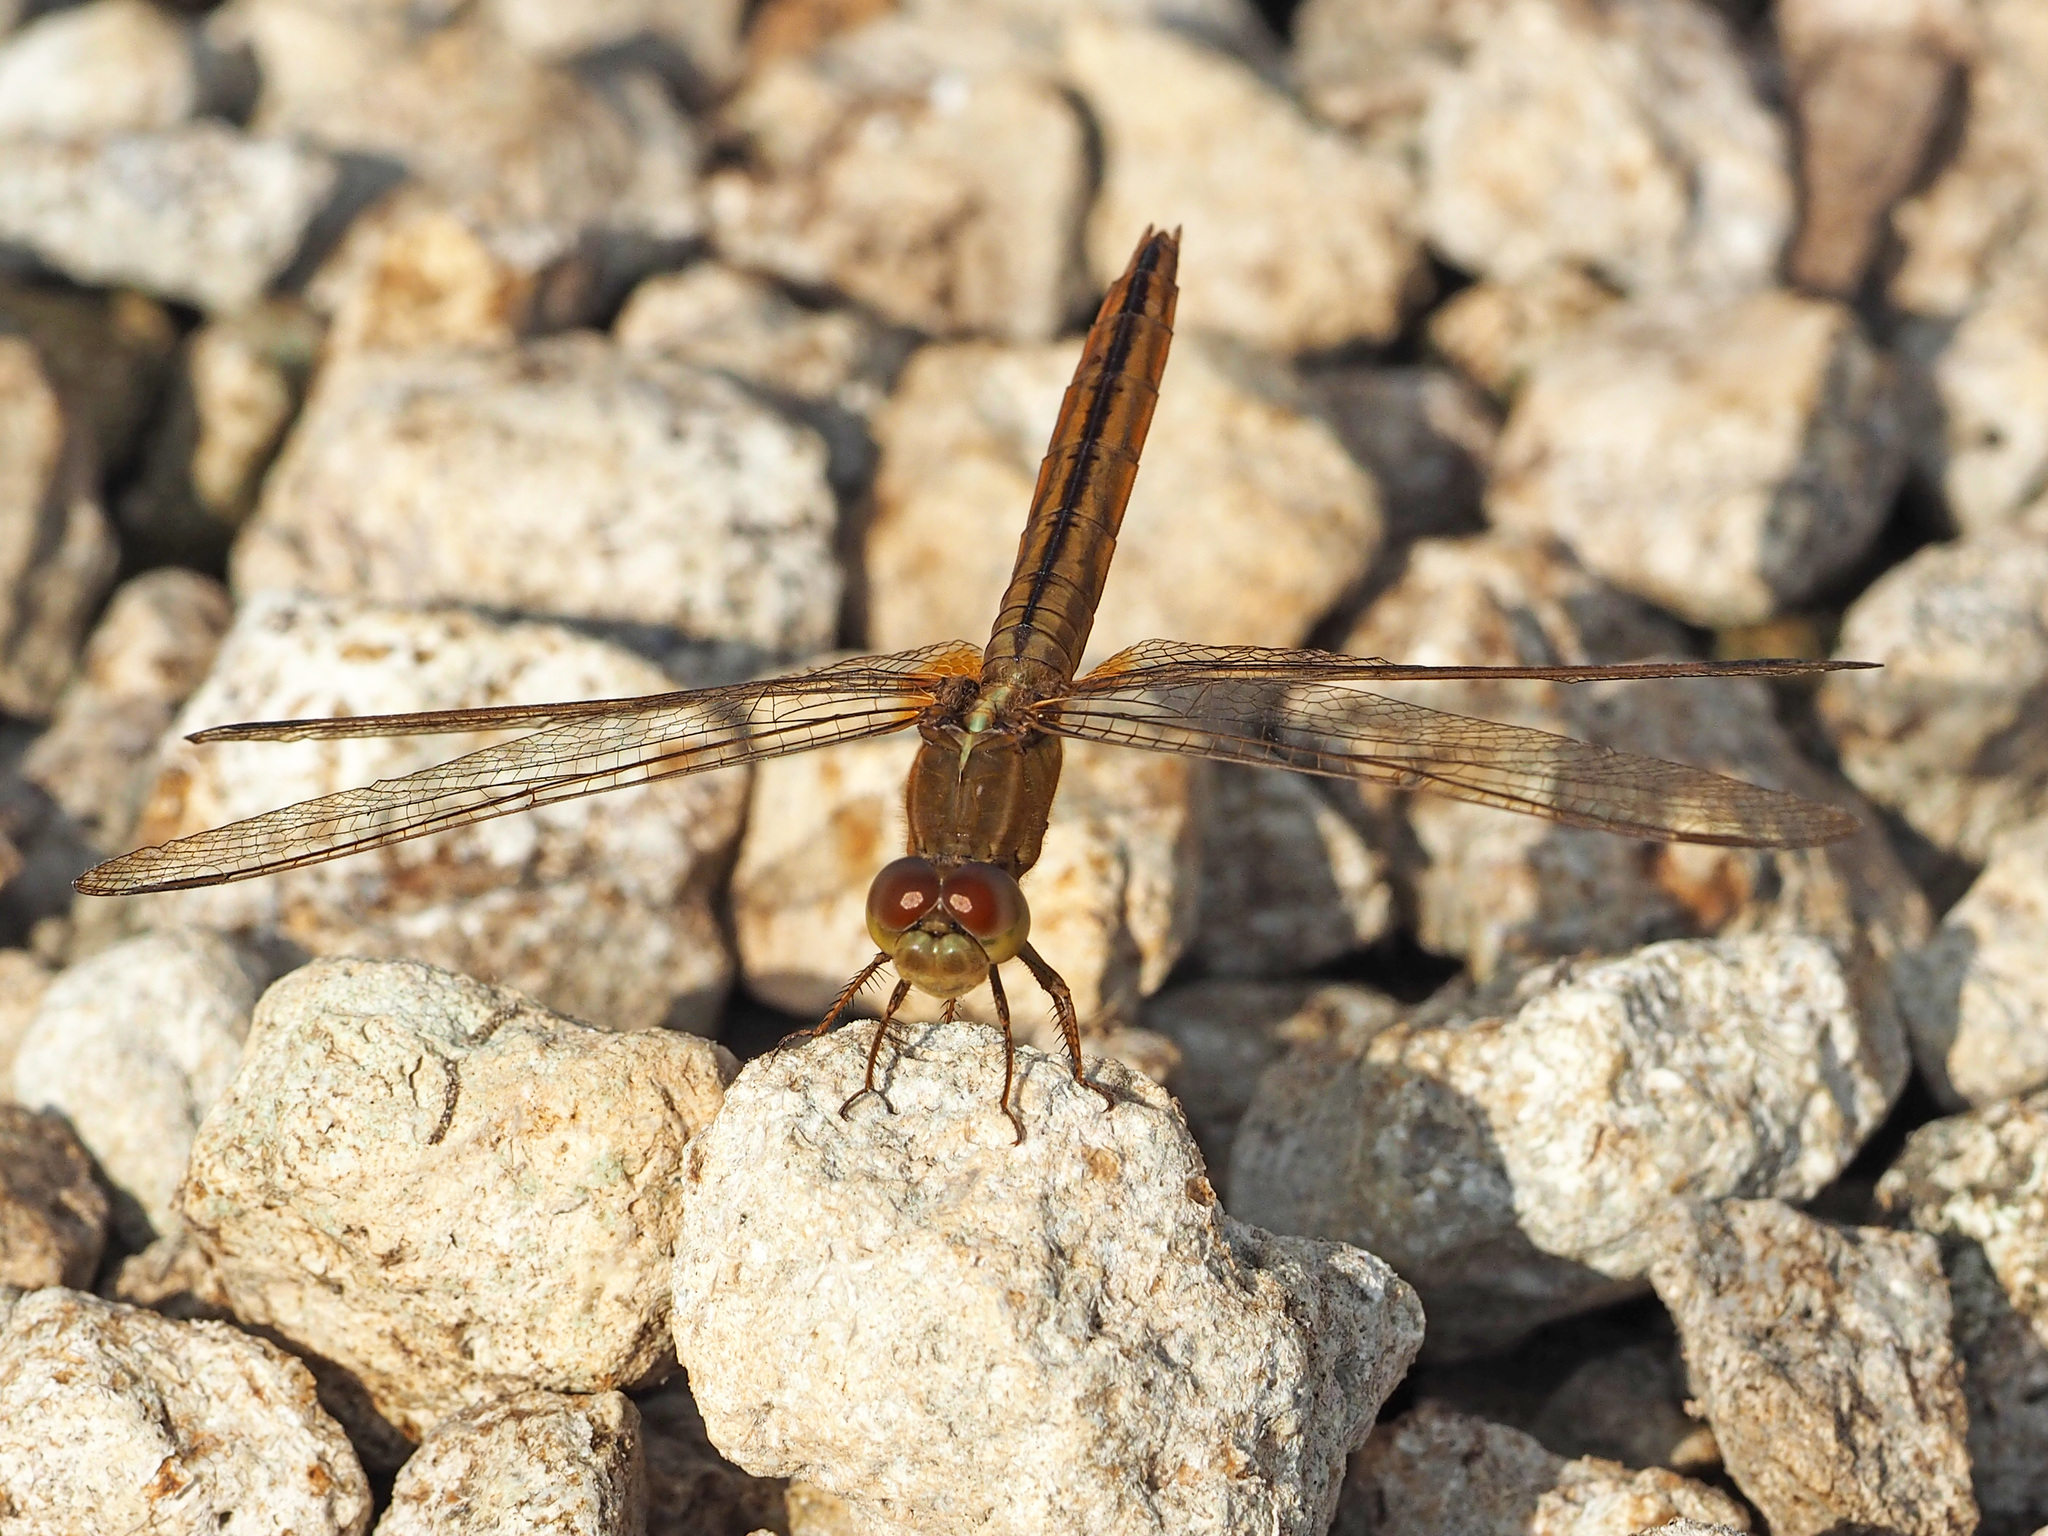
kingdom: Animalia
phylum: Arthropoda
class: Insecta
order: Odonata
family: Libellulidae
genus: Crocothemis
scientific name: Crocothemis servilia
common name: Scarlet skimmer
